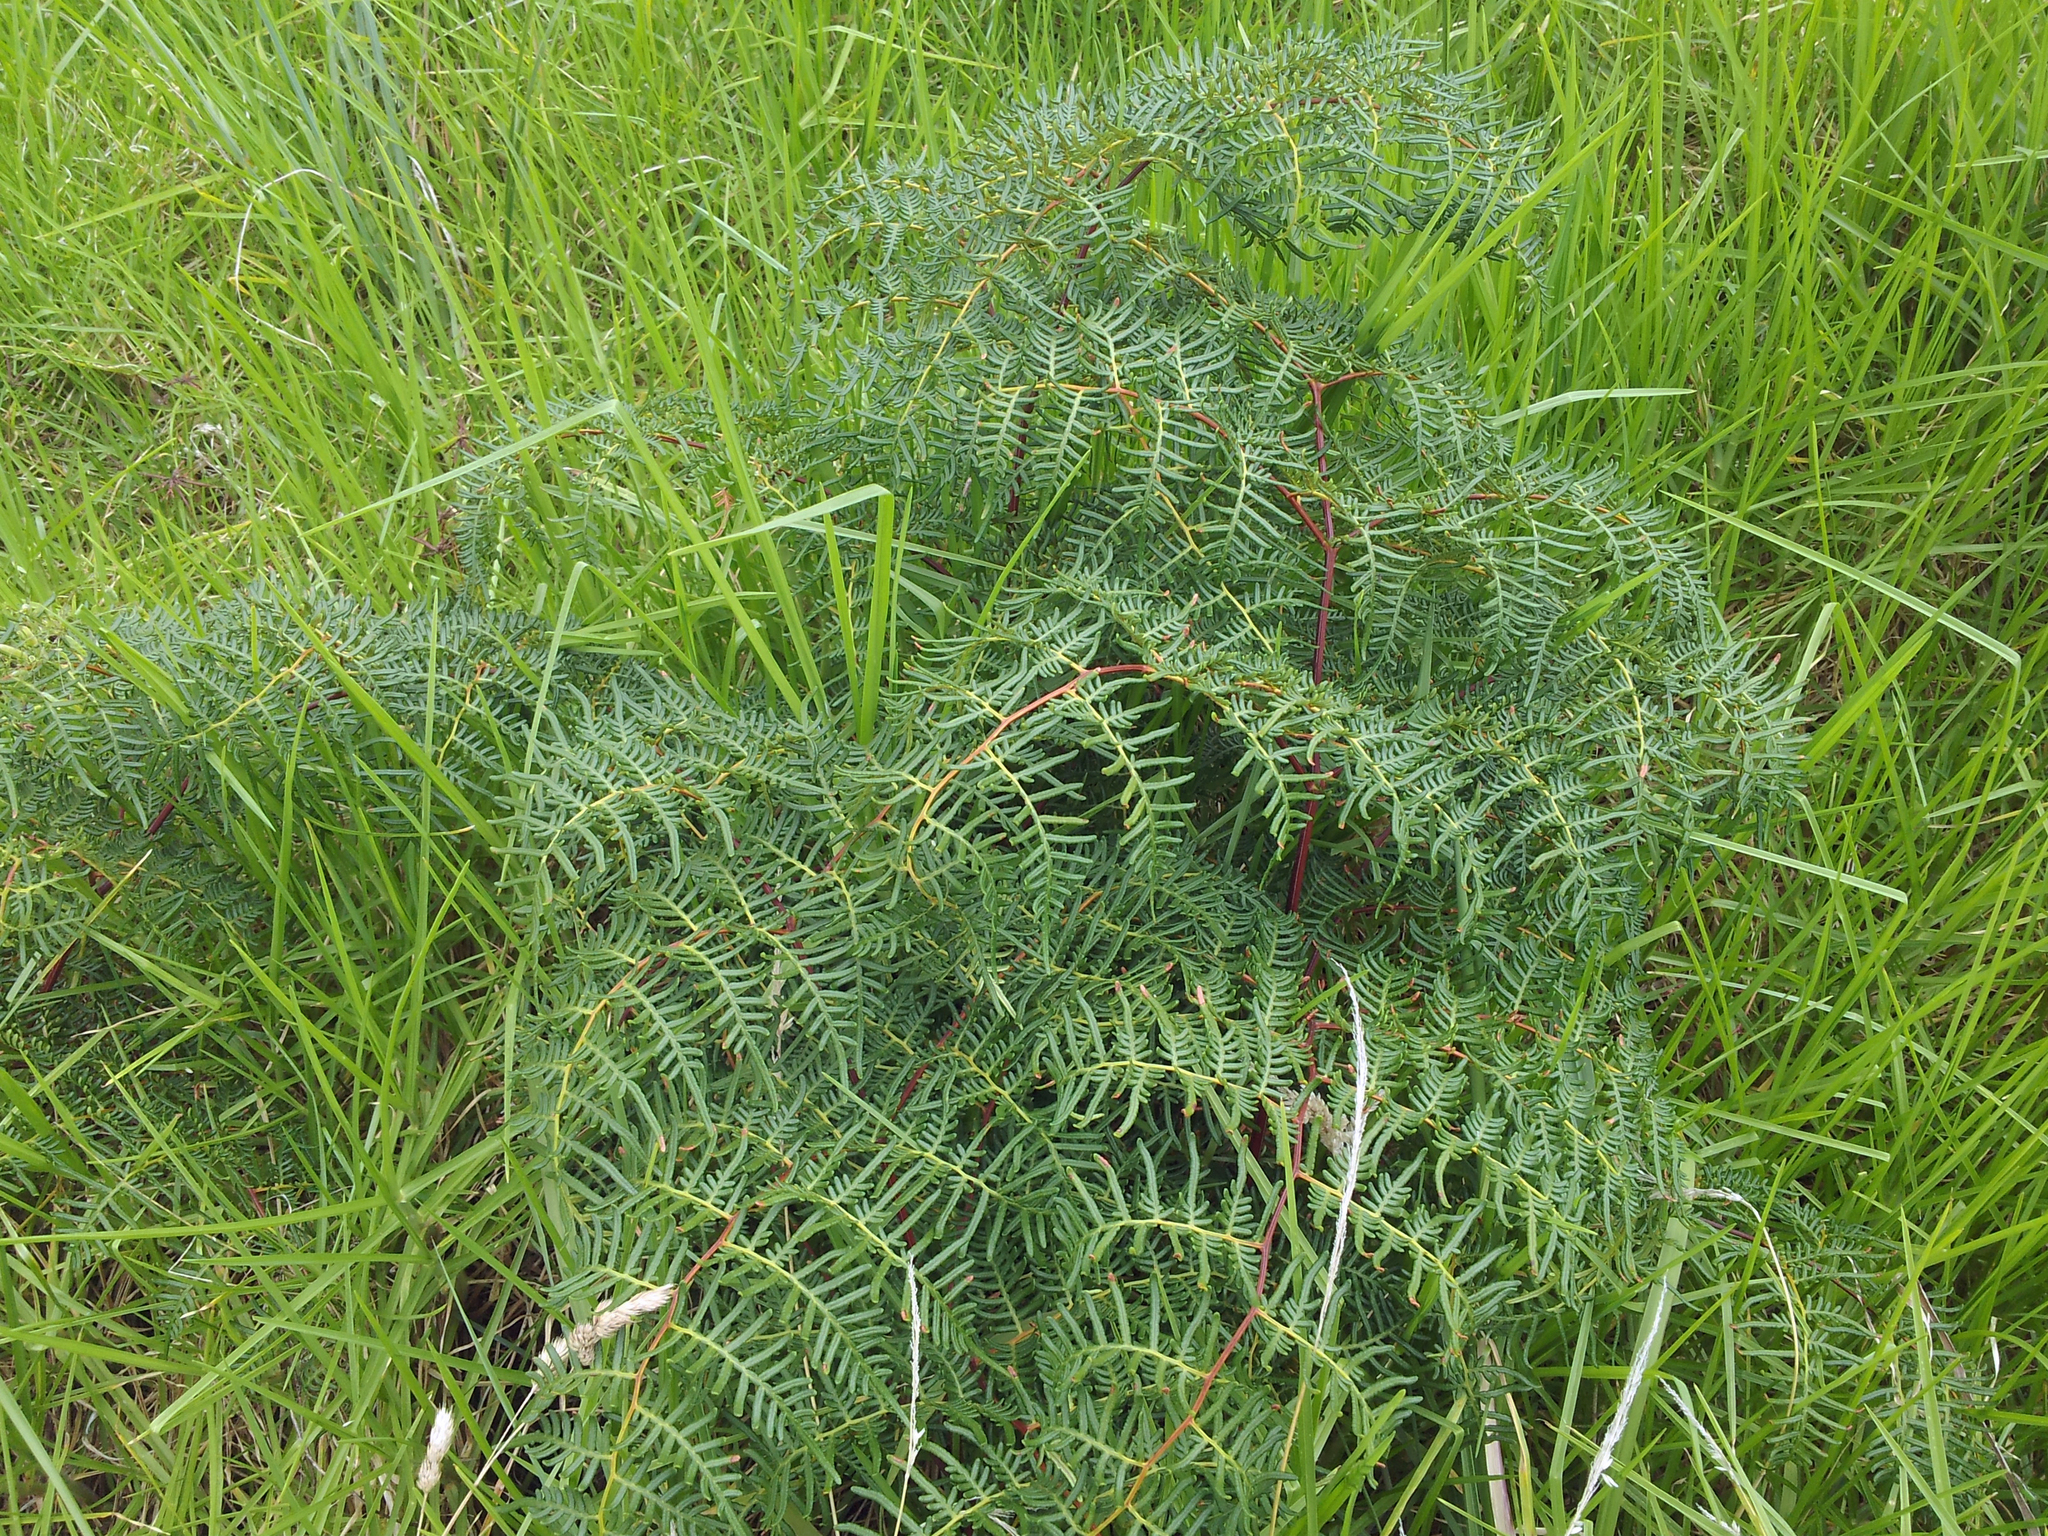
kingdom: Plantae
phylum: Tracheophyta
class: Polypodiopsida
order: Polypodiales
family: Dennstaedtiaceae
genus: Pteridium
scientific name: Pteridium esculentum
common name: Bracken fern
